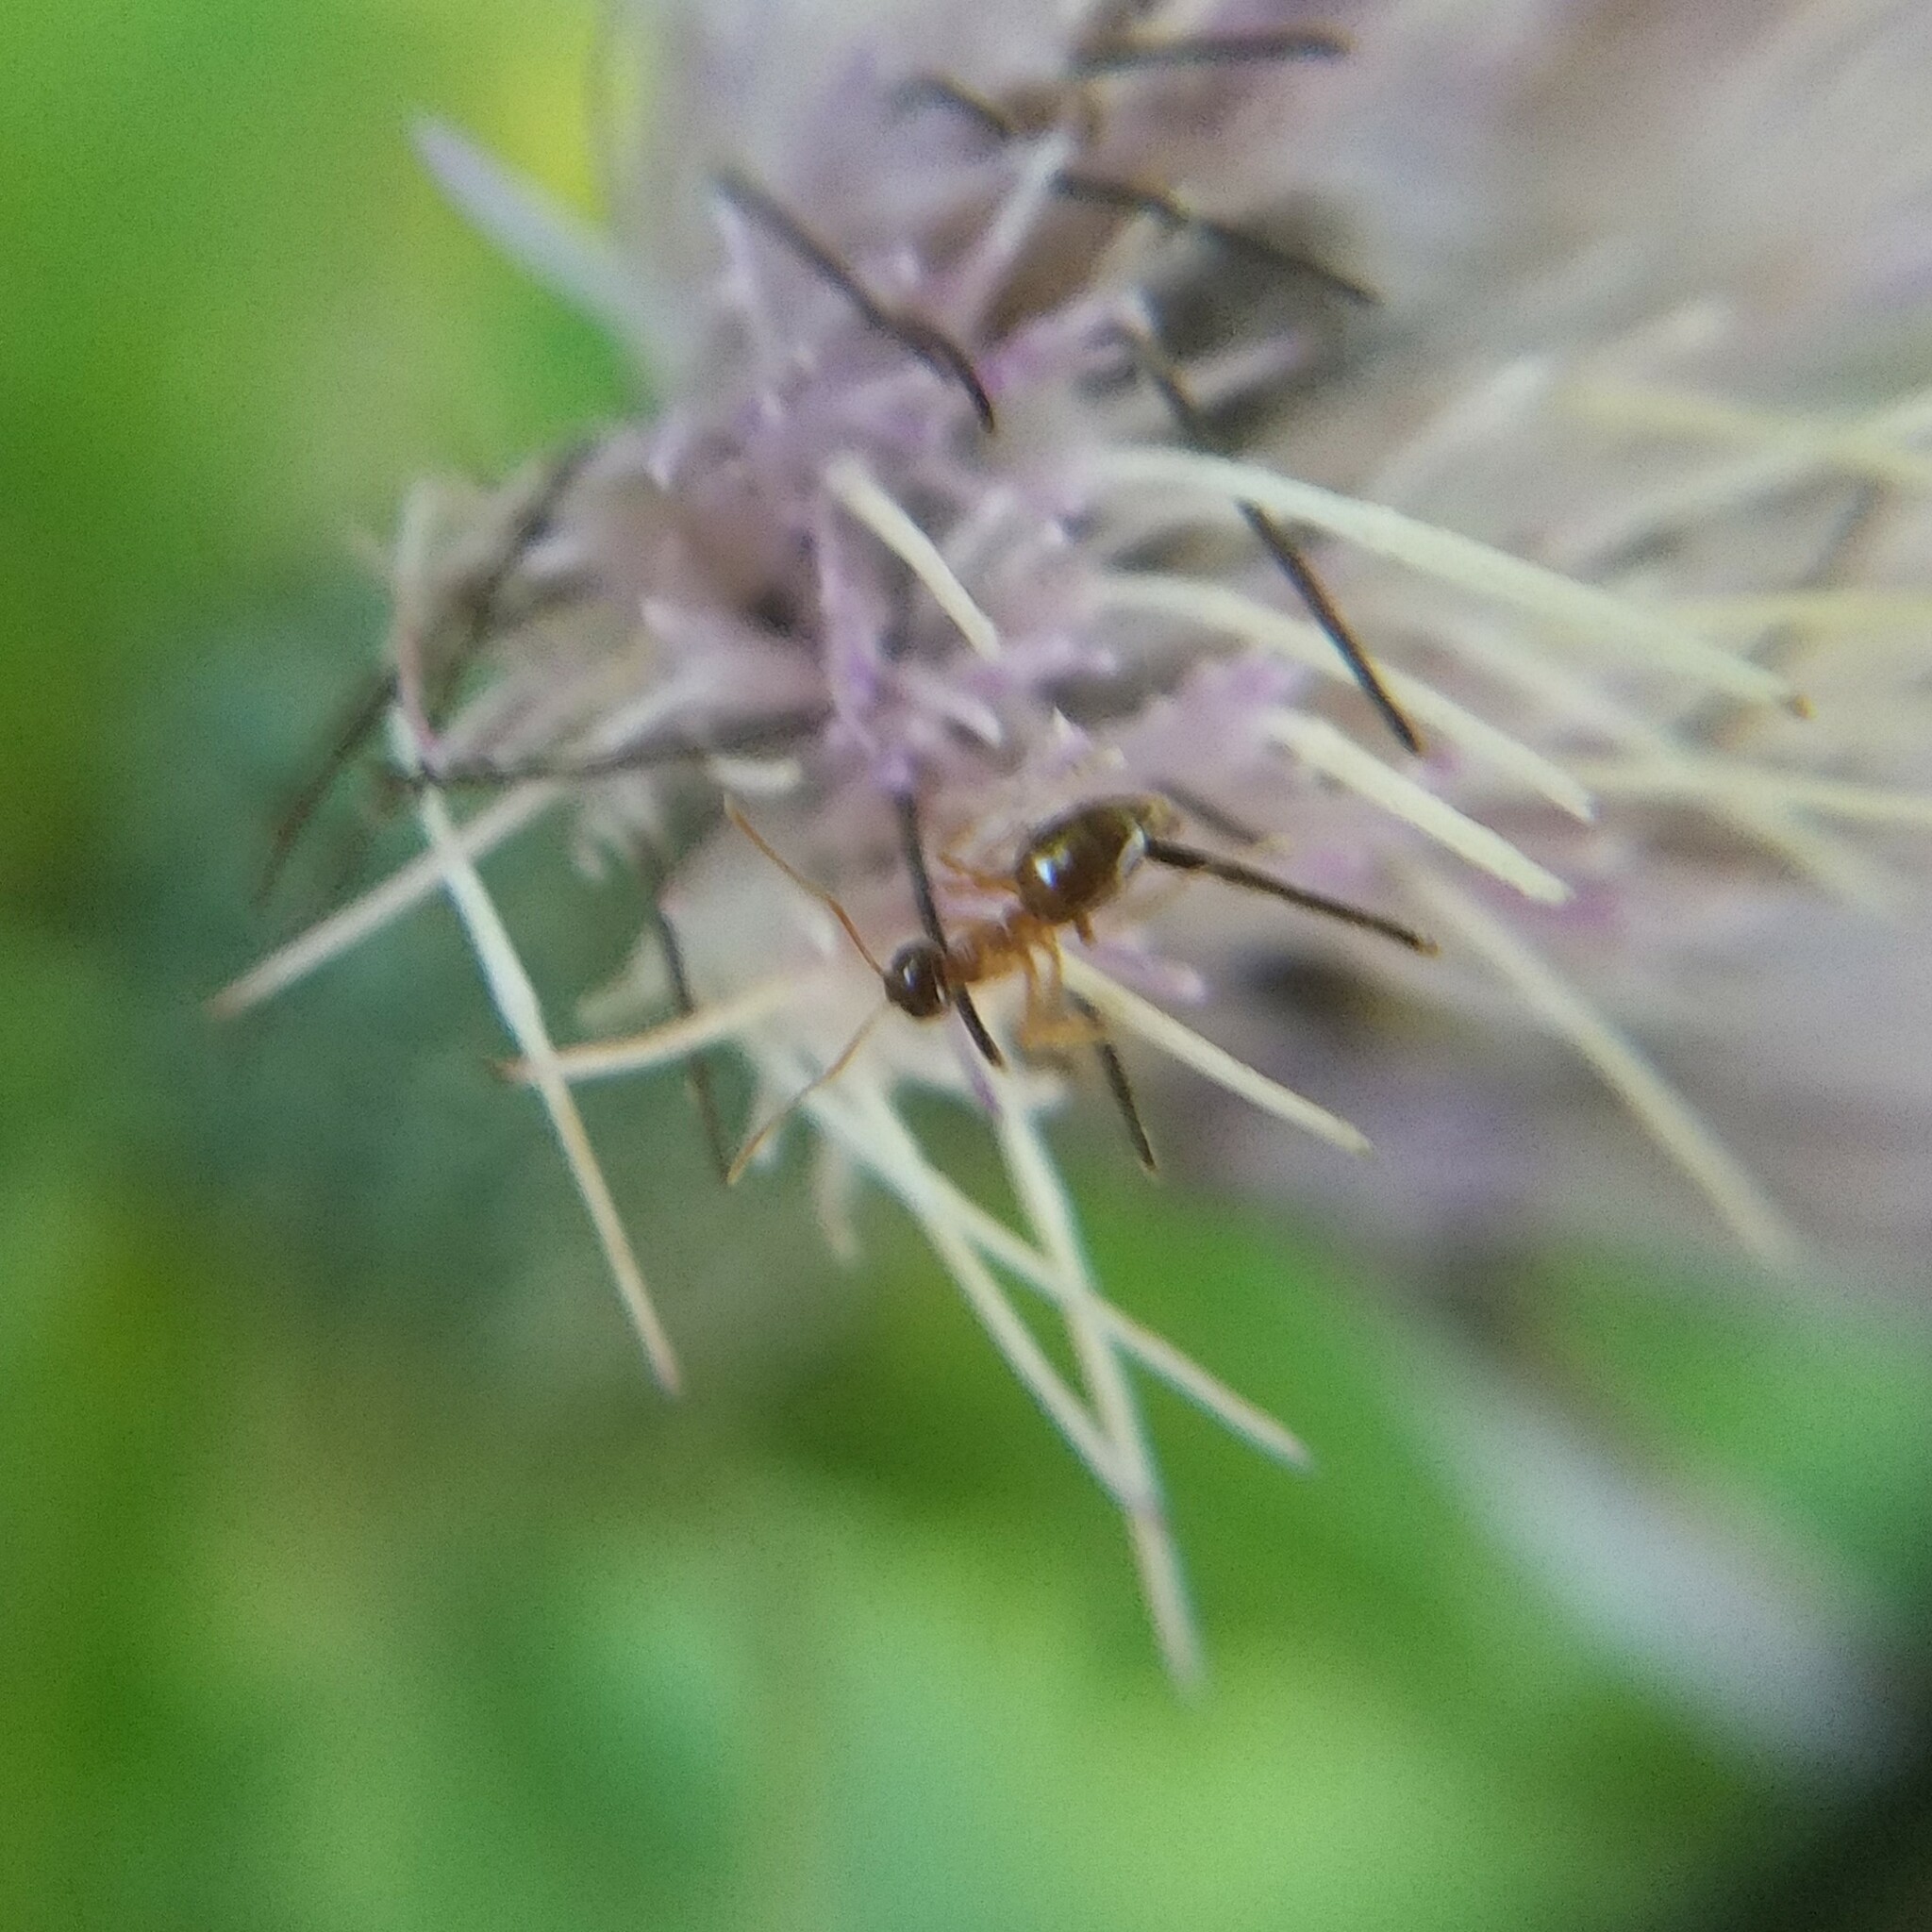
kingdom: Animalia
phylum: Arthropoda
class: Insecta
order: Hymenoptera
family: Formicidae
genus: Prenolepis
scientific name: Prenolepis imparis
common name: Small honey ant
